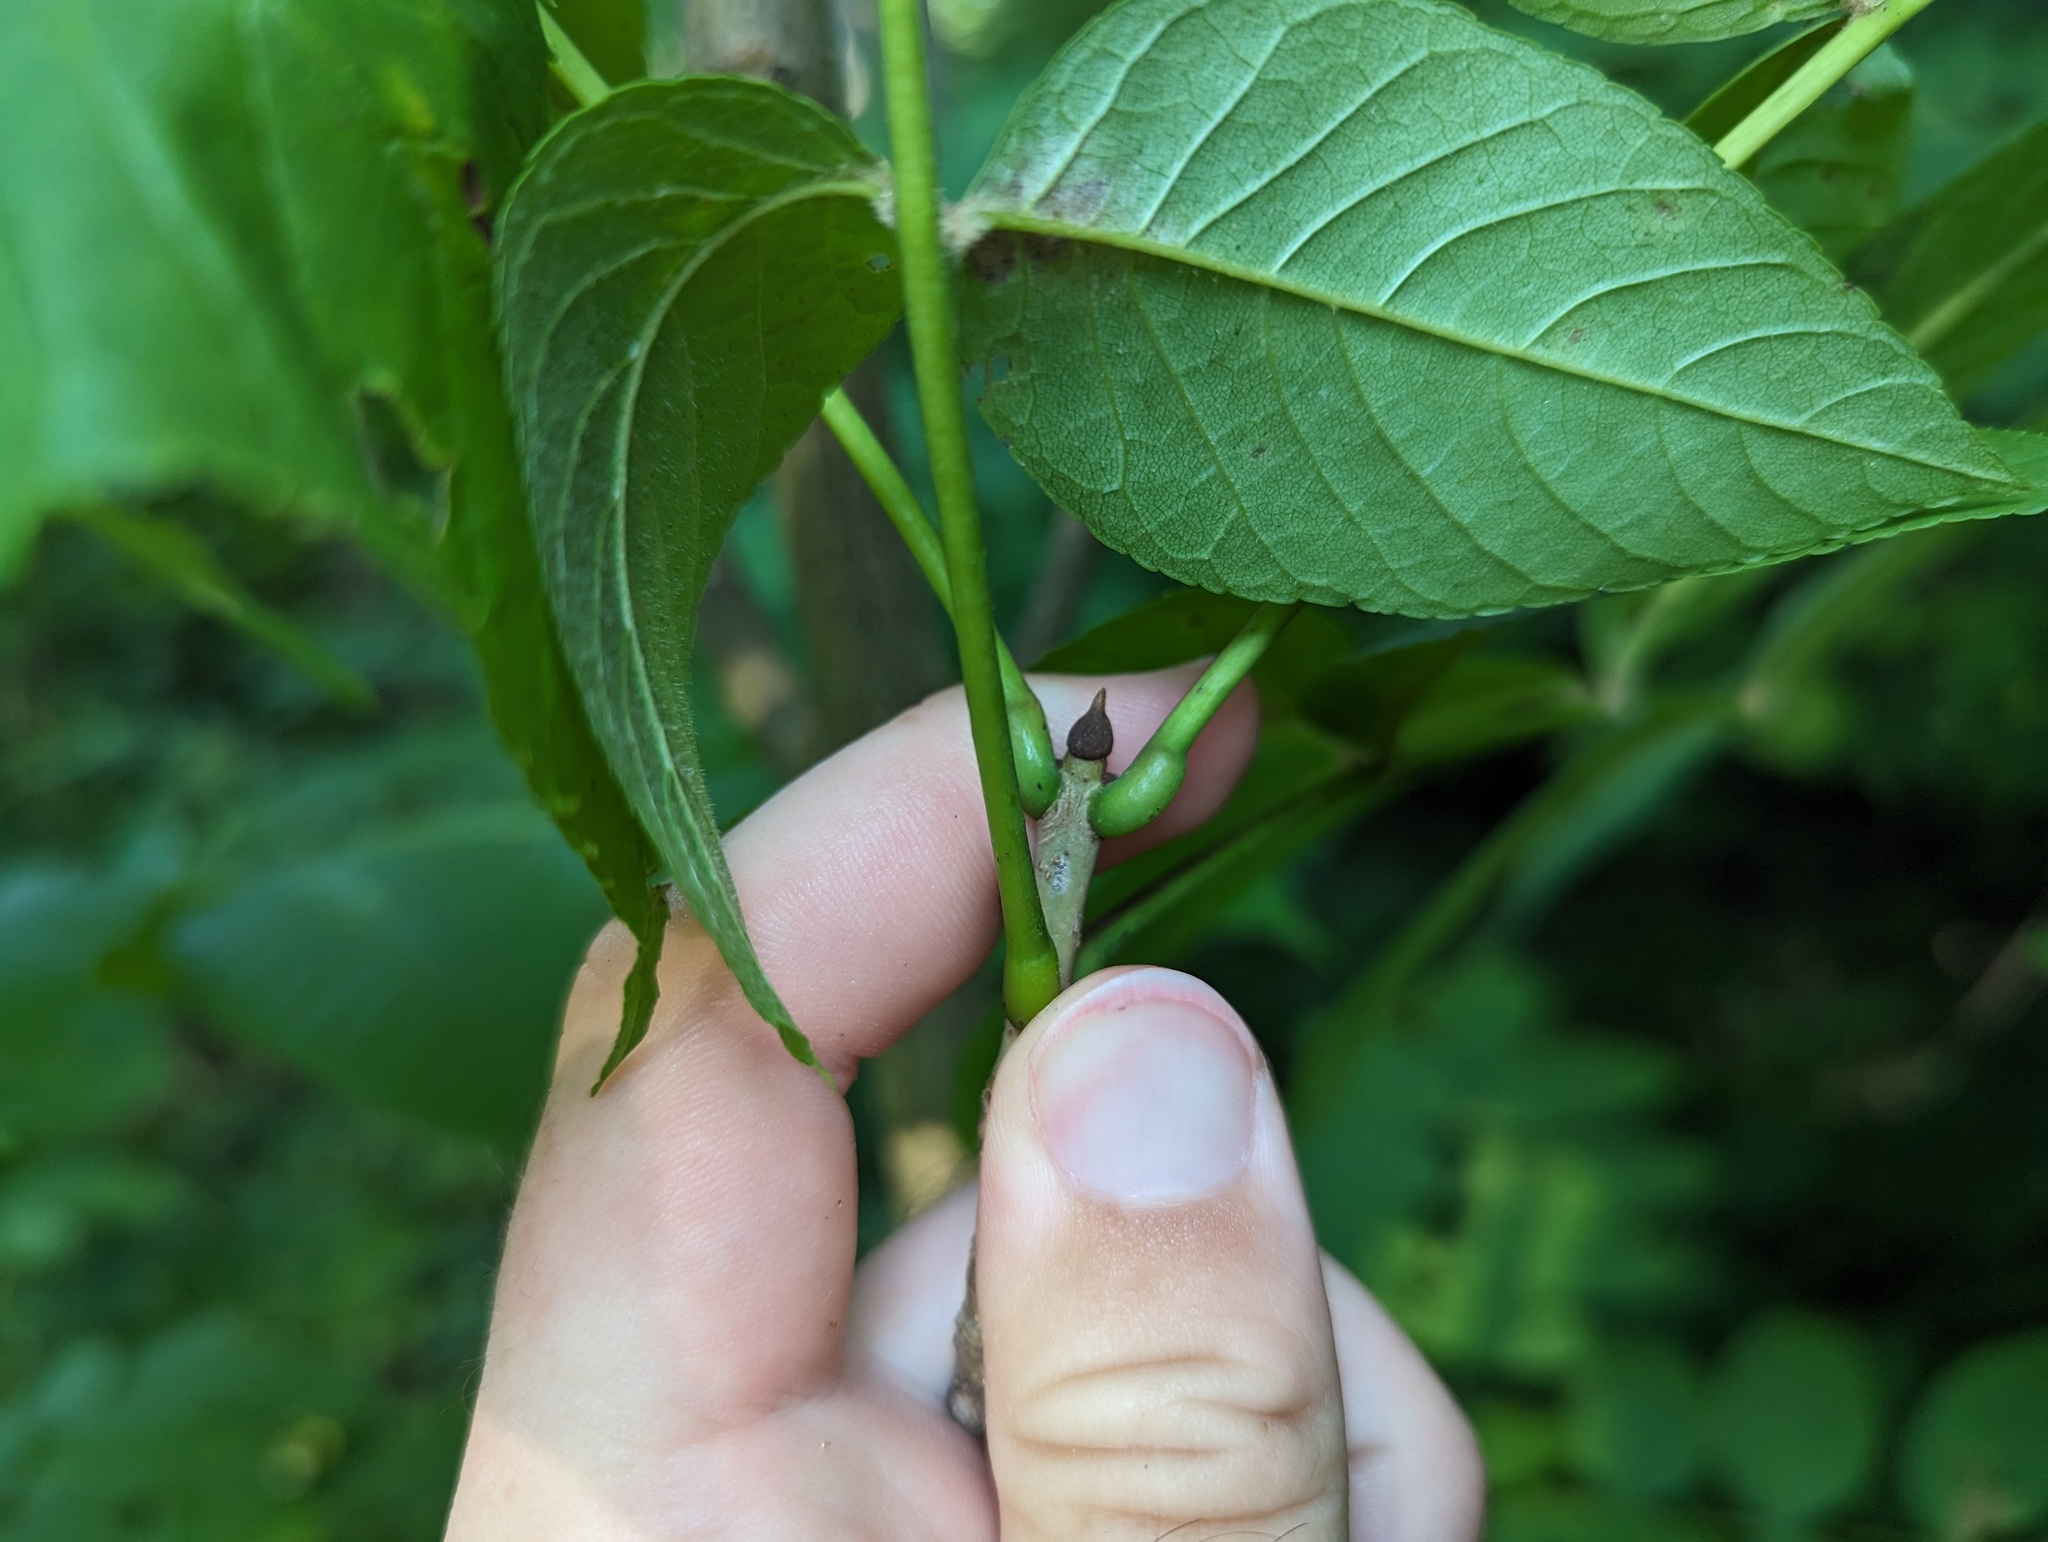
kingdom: Plantae
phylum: Tracheophyta
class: Magnoliopsida
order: Lamiales
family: Oleaceae
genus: Fraxinus
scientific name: Fraxinus nigra
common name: Black ash
